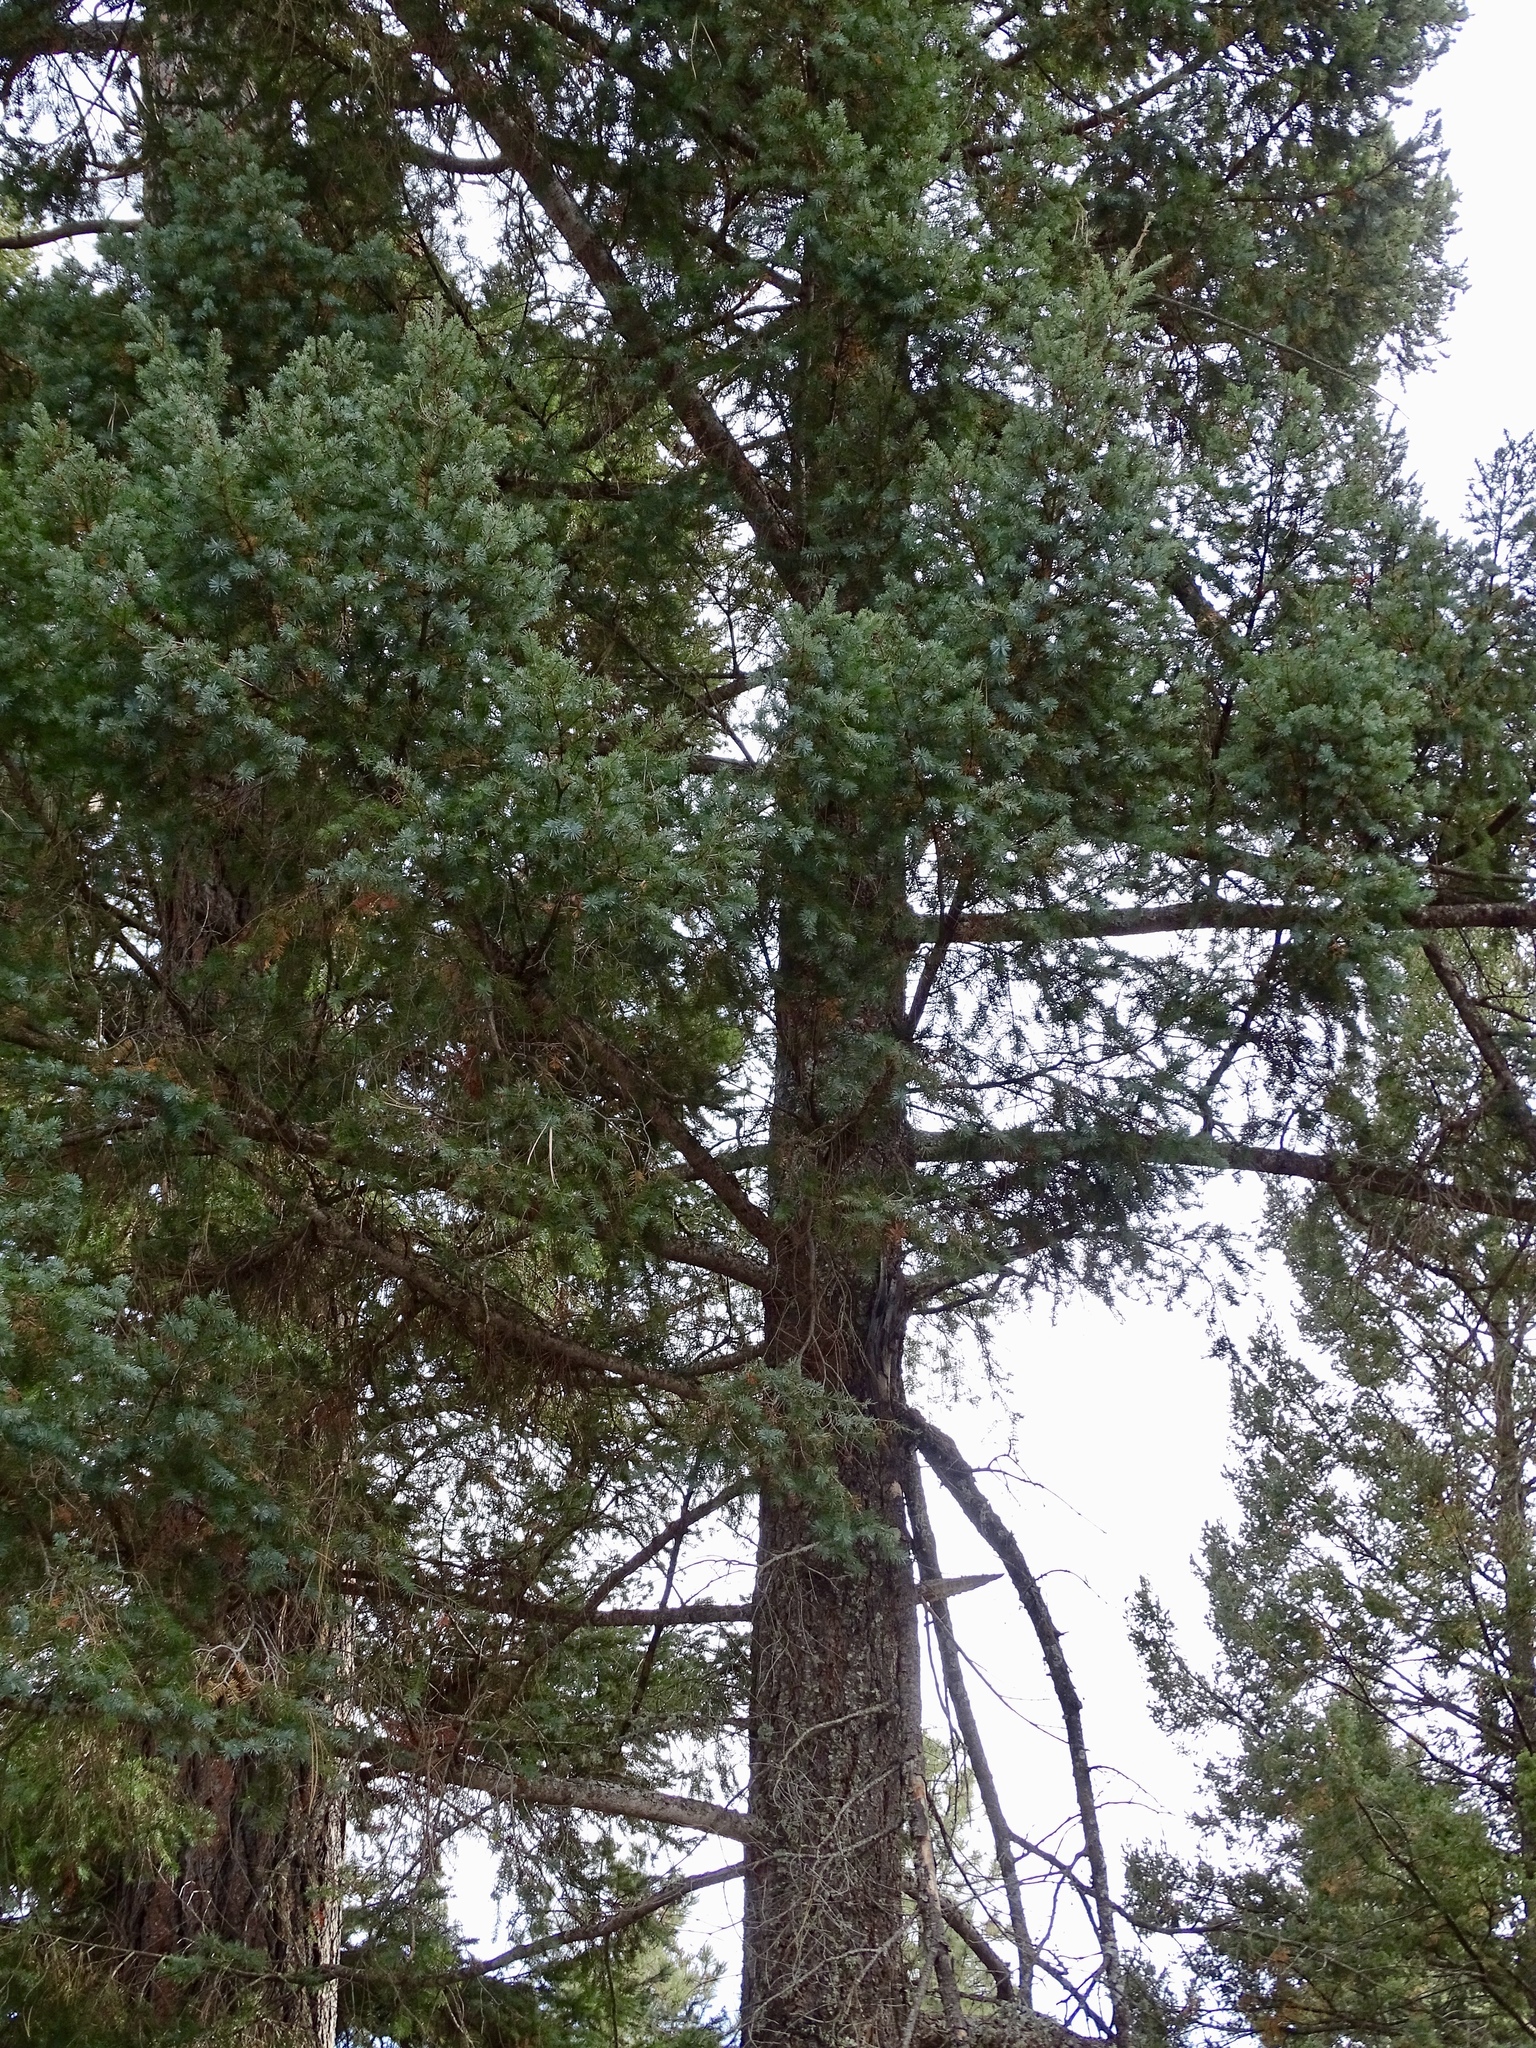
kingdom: Plantae
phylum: Tracheophyta
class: Pinopsida
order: Pinales
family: Pinaceae
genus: Pseudotsuga
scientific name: Pseudotsuga menziesii
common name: Douglas fir
